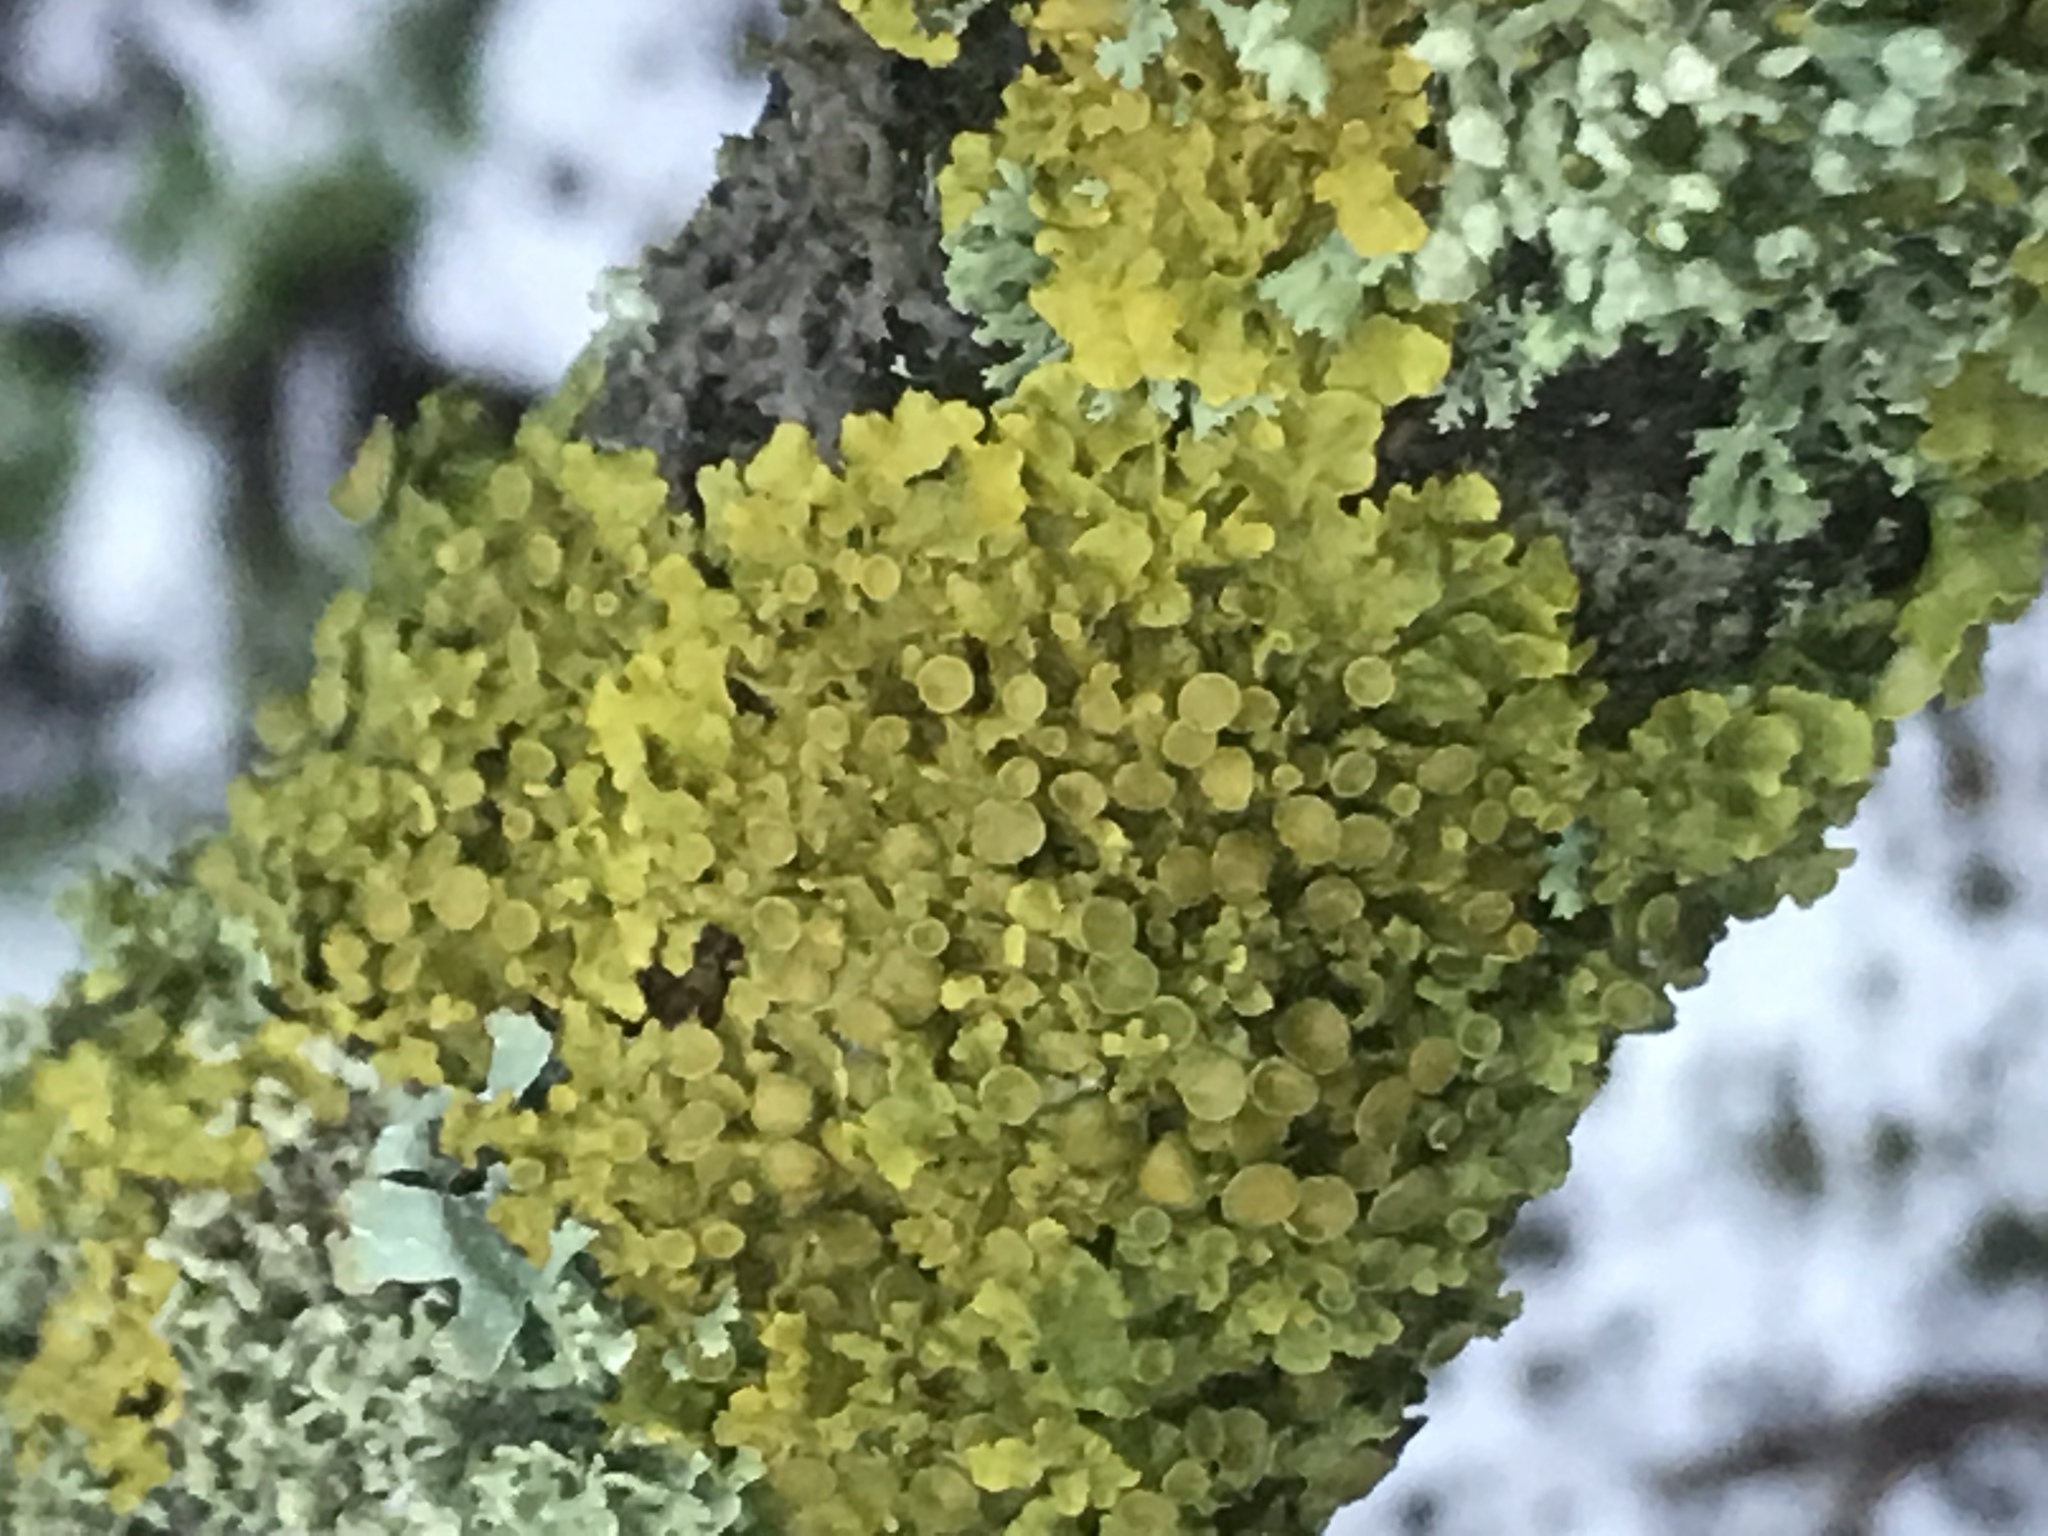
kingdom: Fungi
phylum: Ascomycota
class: Lecanoromycetes
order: Teloschistales
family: Teloschistaceae
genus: Xanthoria
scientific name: Xanthoria parietina
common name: Common orange lichen
